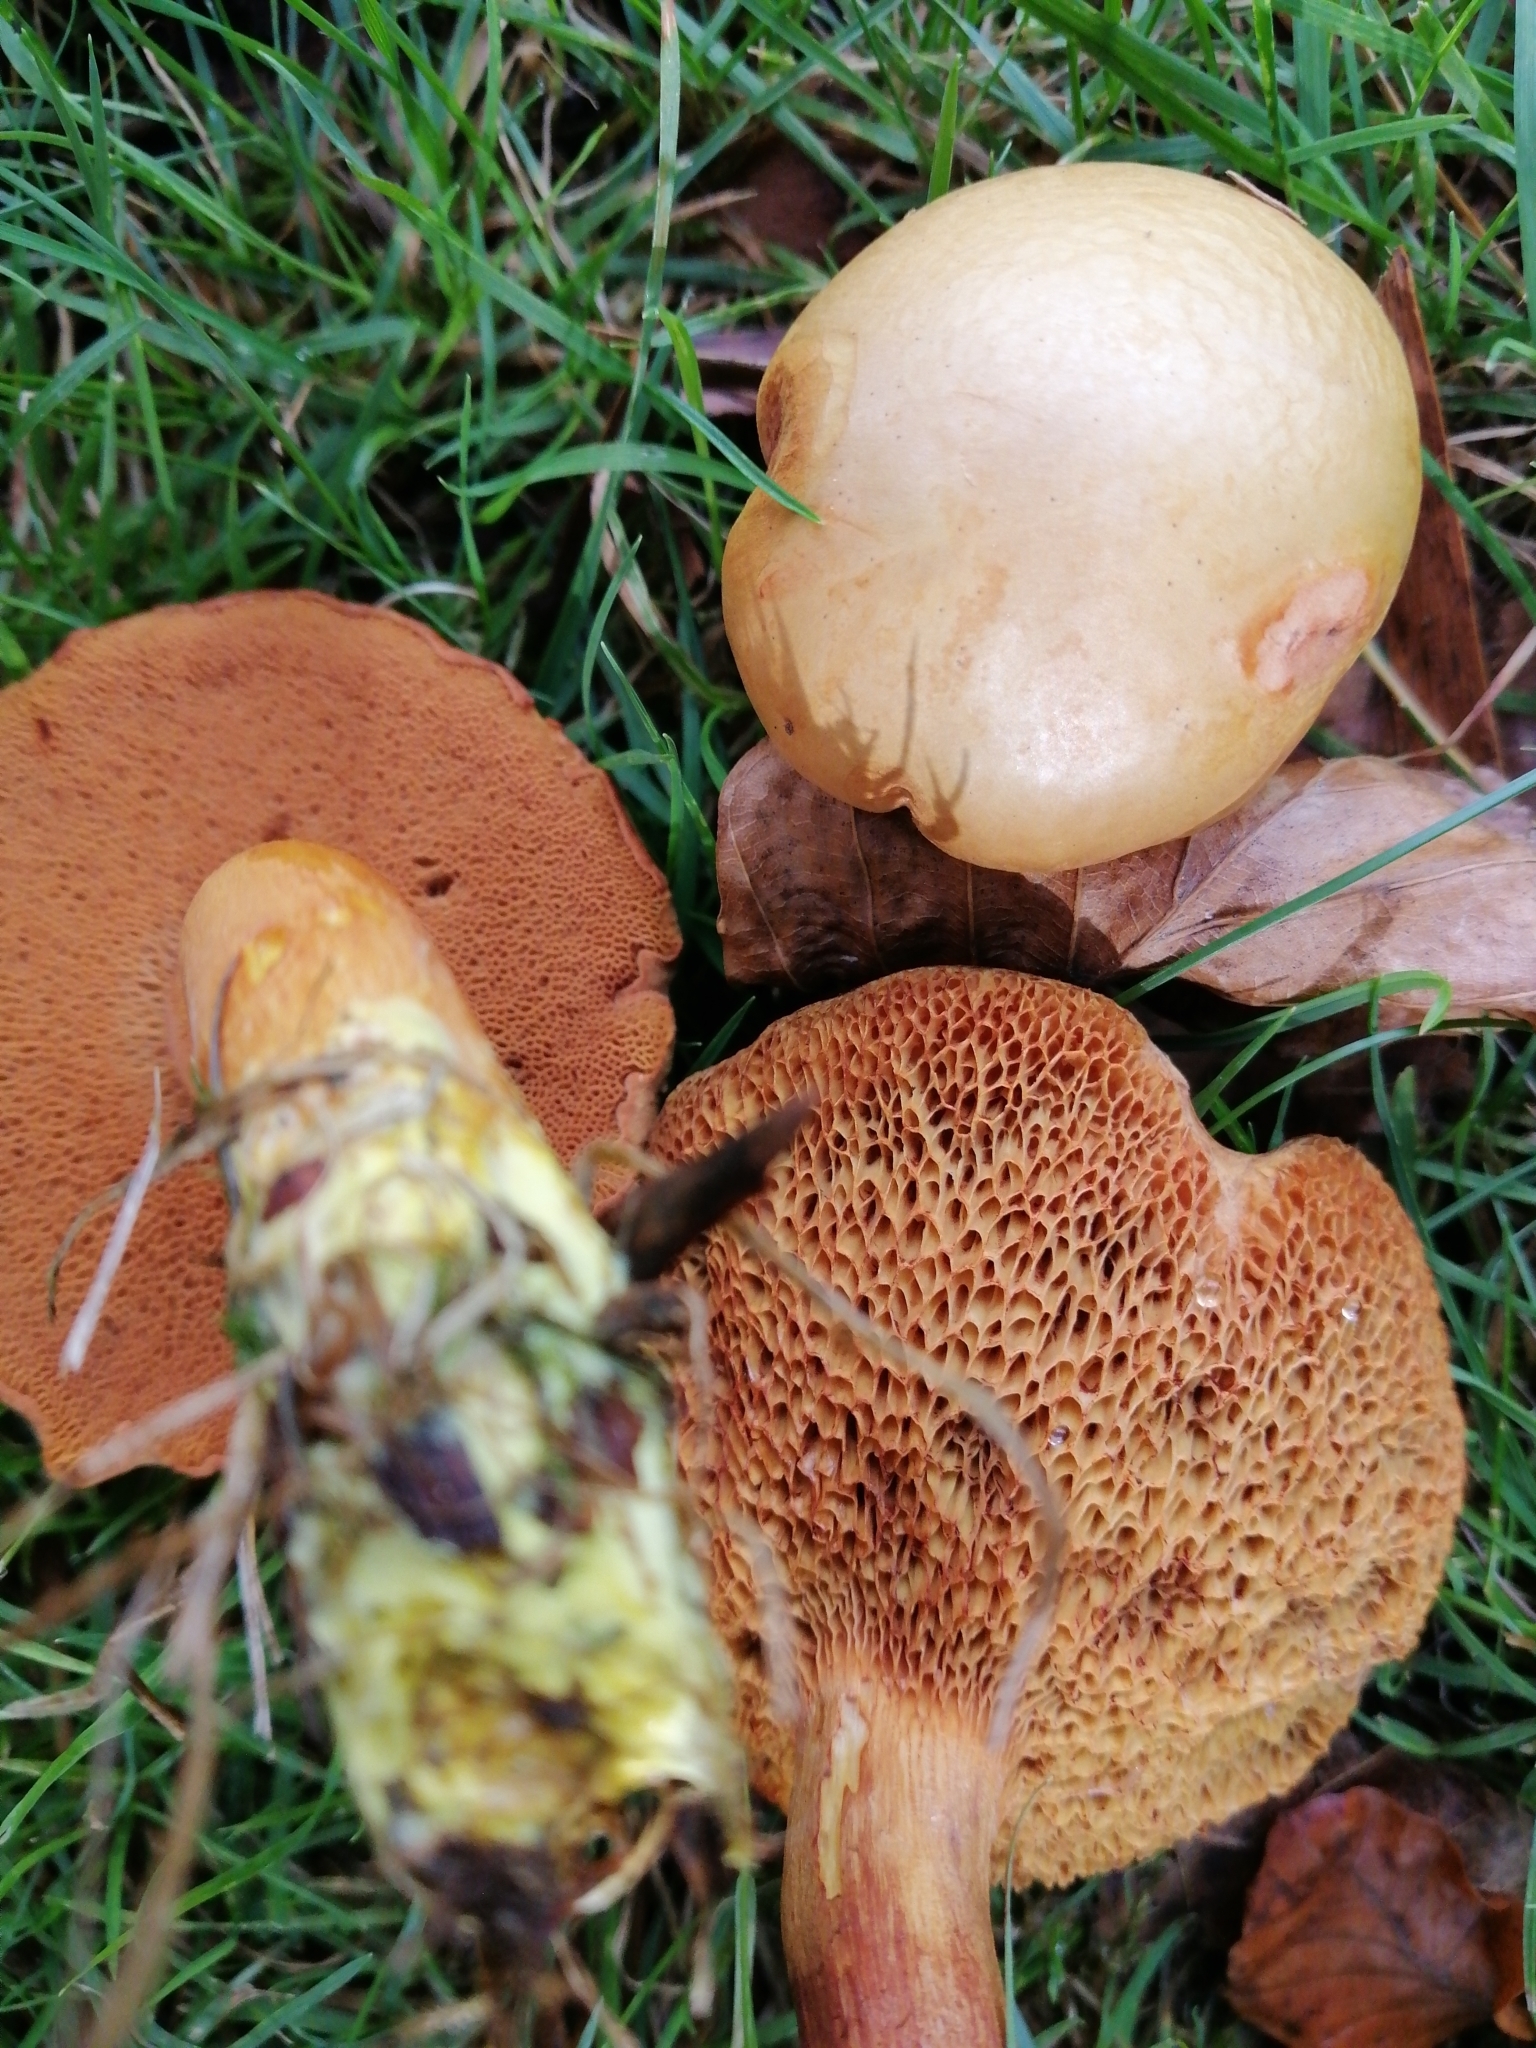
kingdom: Fungi
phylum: Basidiomycota
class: Agaricomycetes
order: Boletales
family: Boletaceae
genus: Chalciporus
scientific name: Chalciporus piperatus
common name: Peppery bolete
